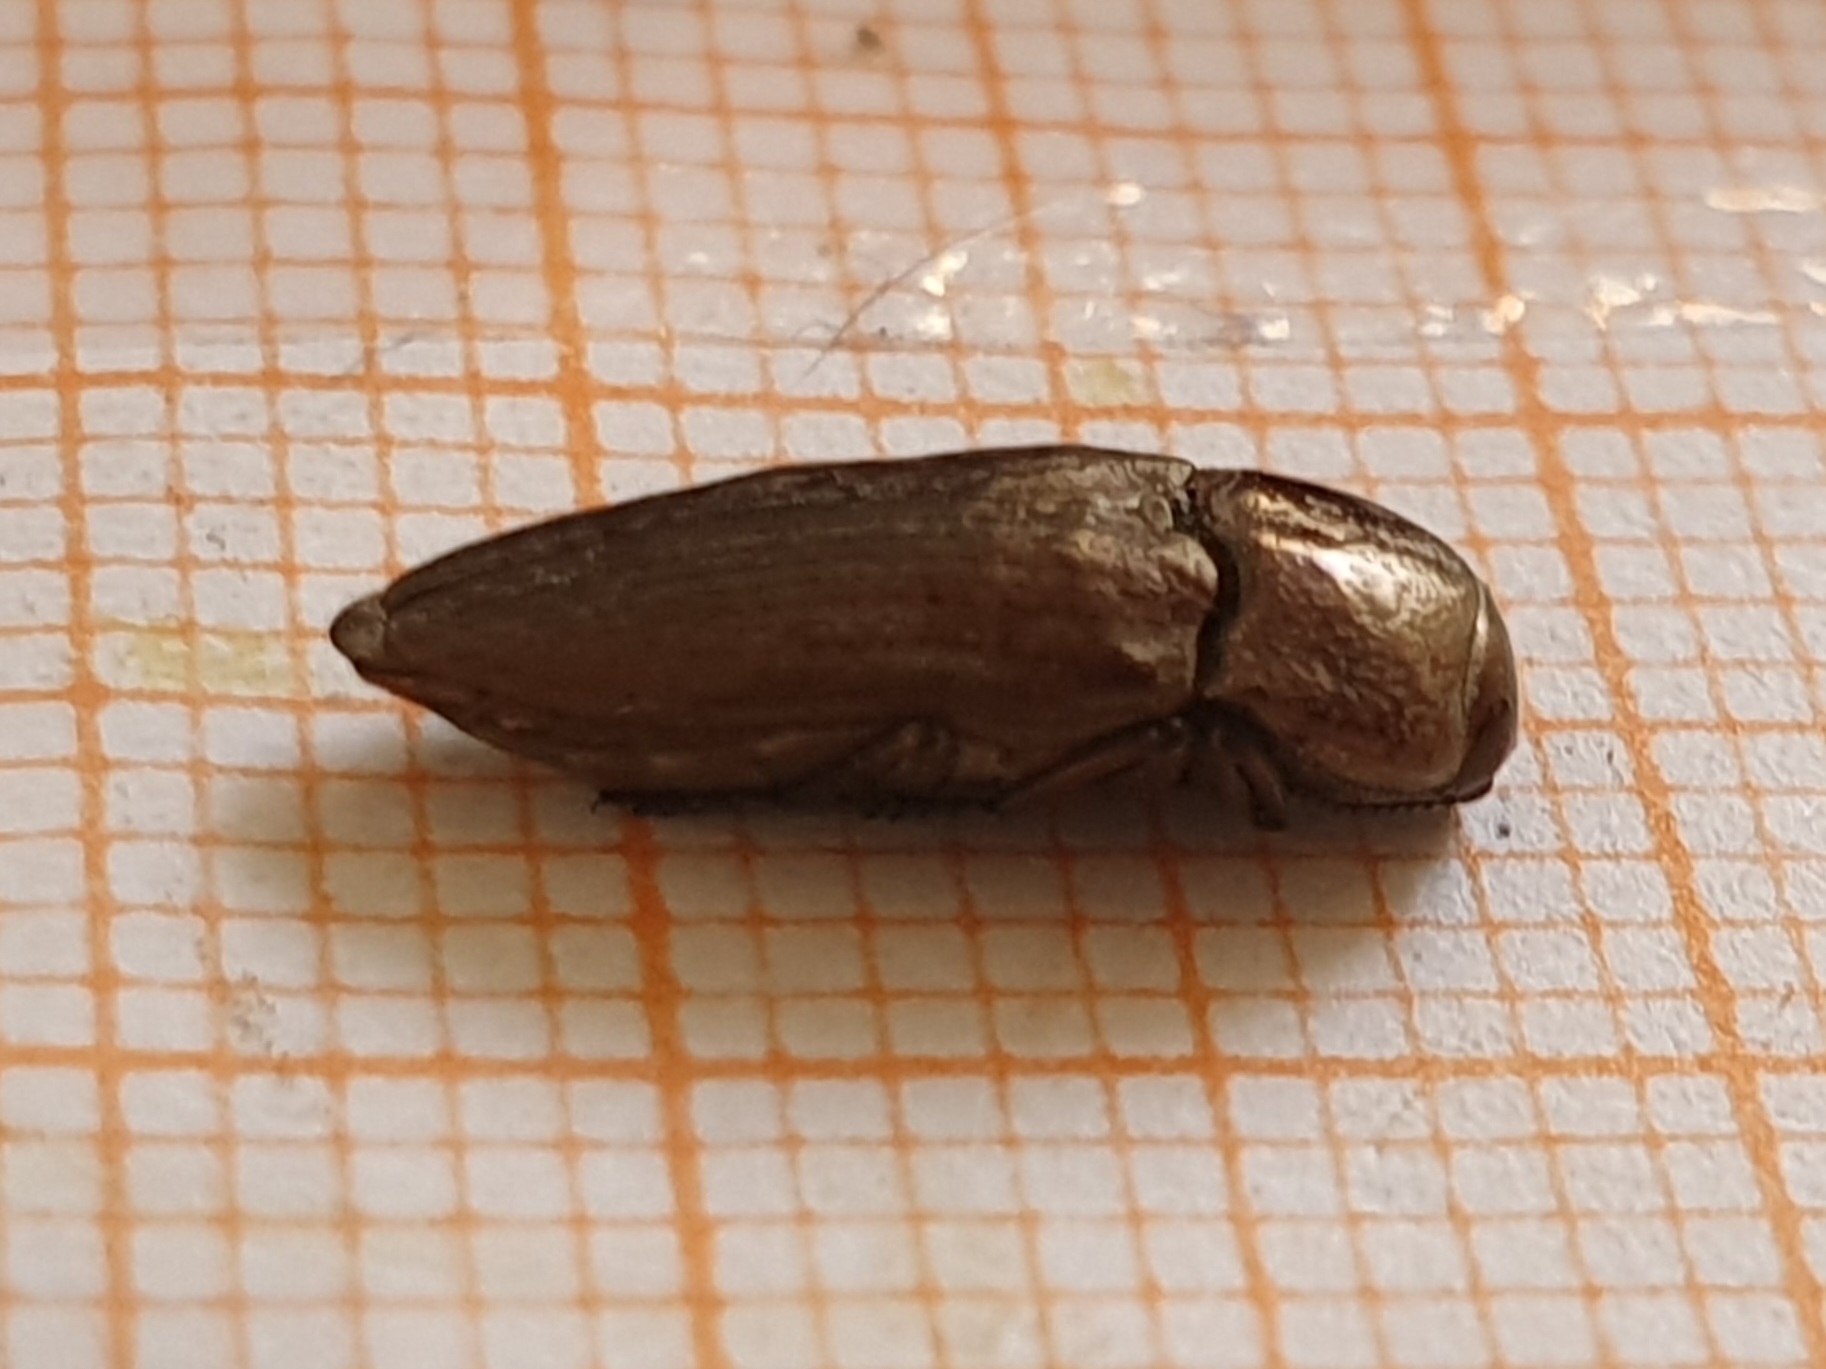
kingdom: Animalia
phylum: Arthropoda
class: Insecta
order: Coleoptera
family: Buprestidae
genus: Sphenoptera
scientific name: Sphenoptera antiqua
